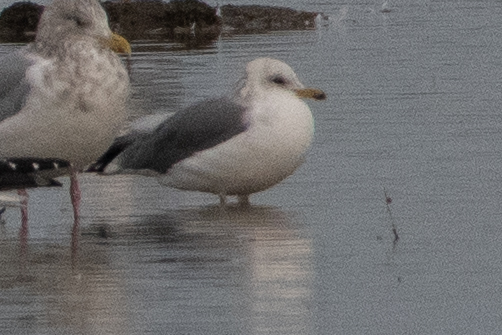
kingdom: Animalia
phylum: Chordata
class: Aves
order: Charadriiformes
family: Laridae
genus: Larus
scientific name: Larus californicus
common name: California gull
